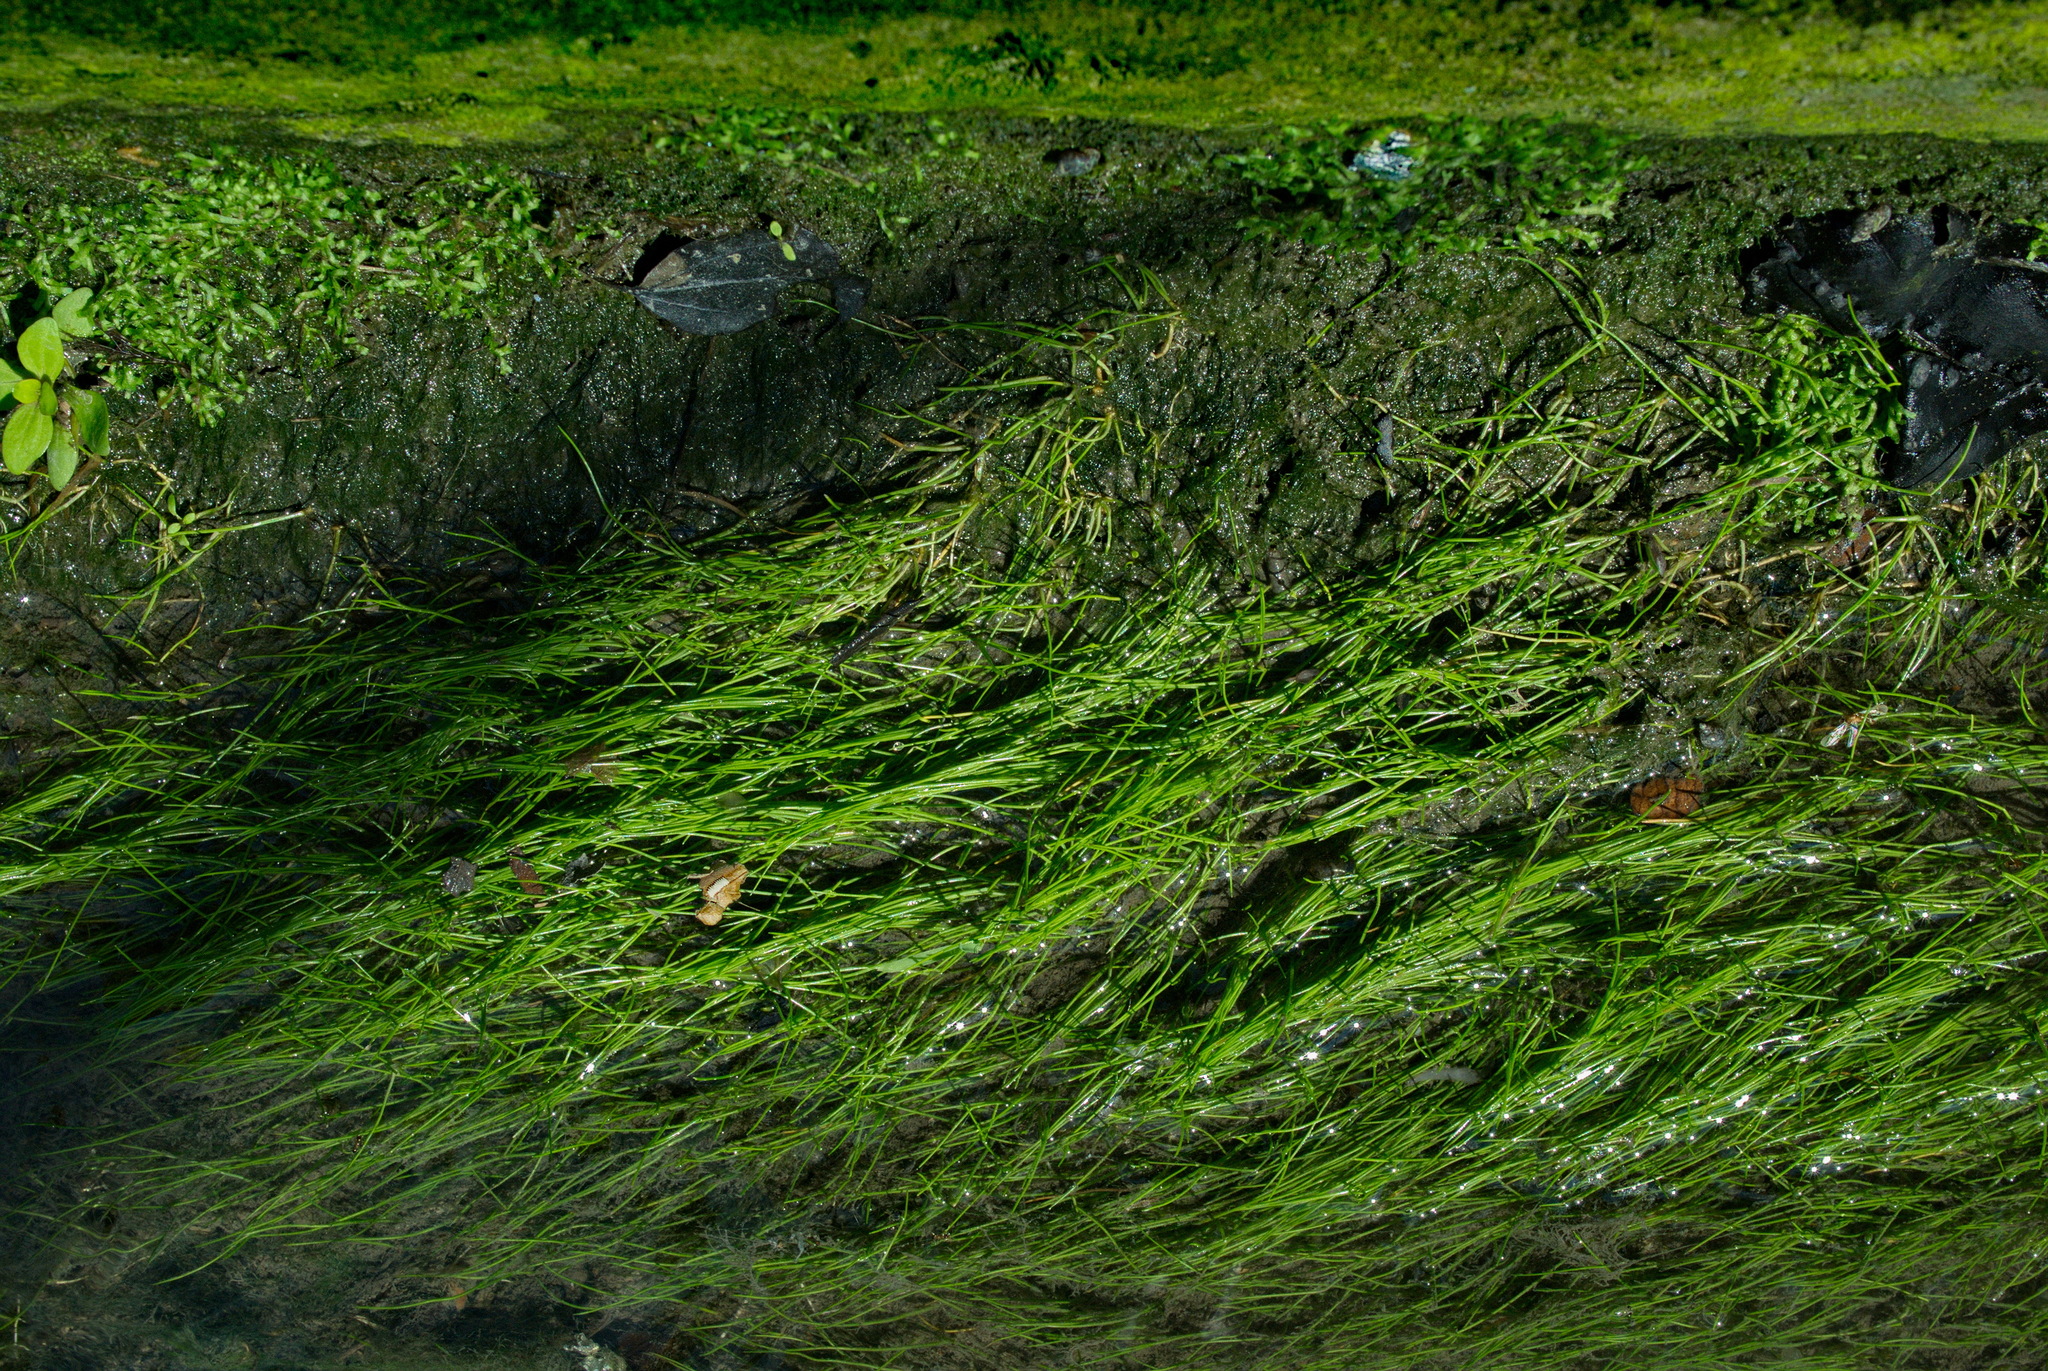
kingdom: Plantae
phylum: Tracheophyta
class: Liliopsida
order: Poales
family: Cyperaceae
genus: Eleocharis
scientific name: Eleocharis yokoscensis
